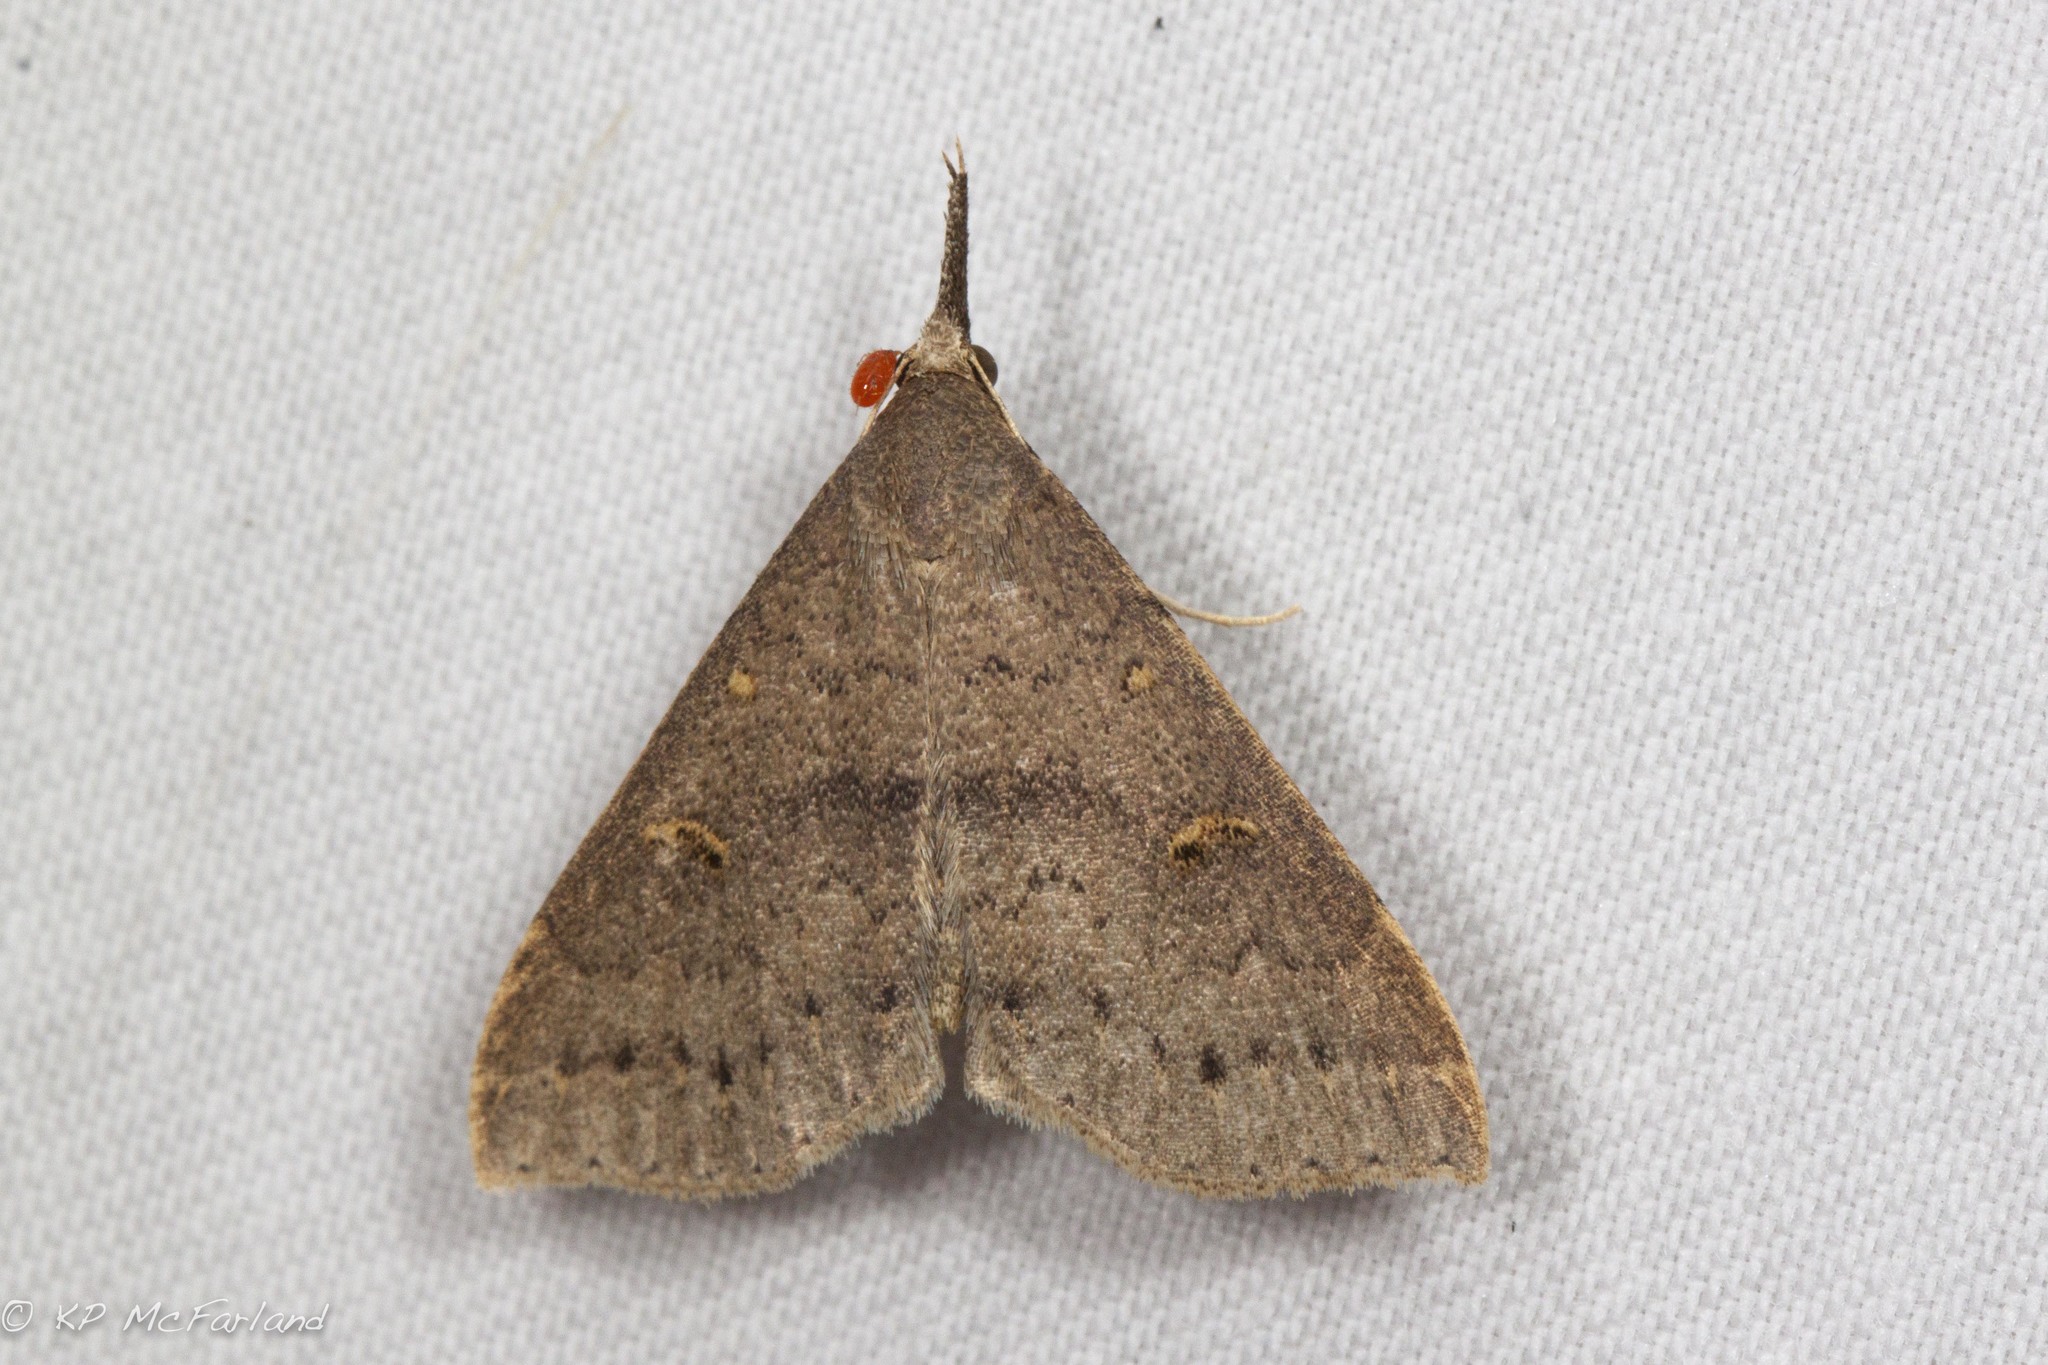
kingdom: Animalia
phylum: Arthropoda
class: Insecta
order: Lepidoptera
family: Erebidae
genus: Renia
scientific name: Renia adspergillus
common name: Speckled renia moth
